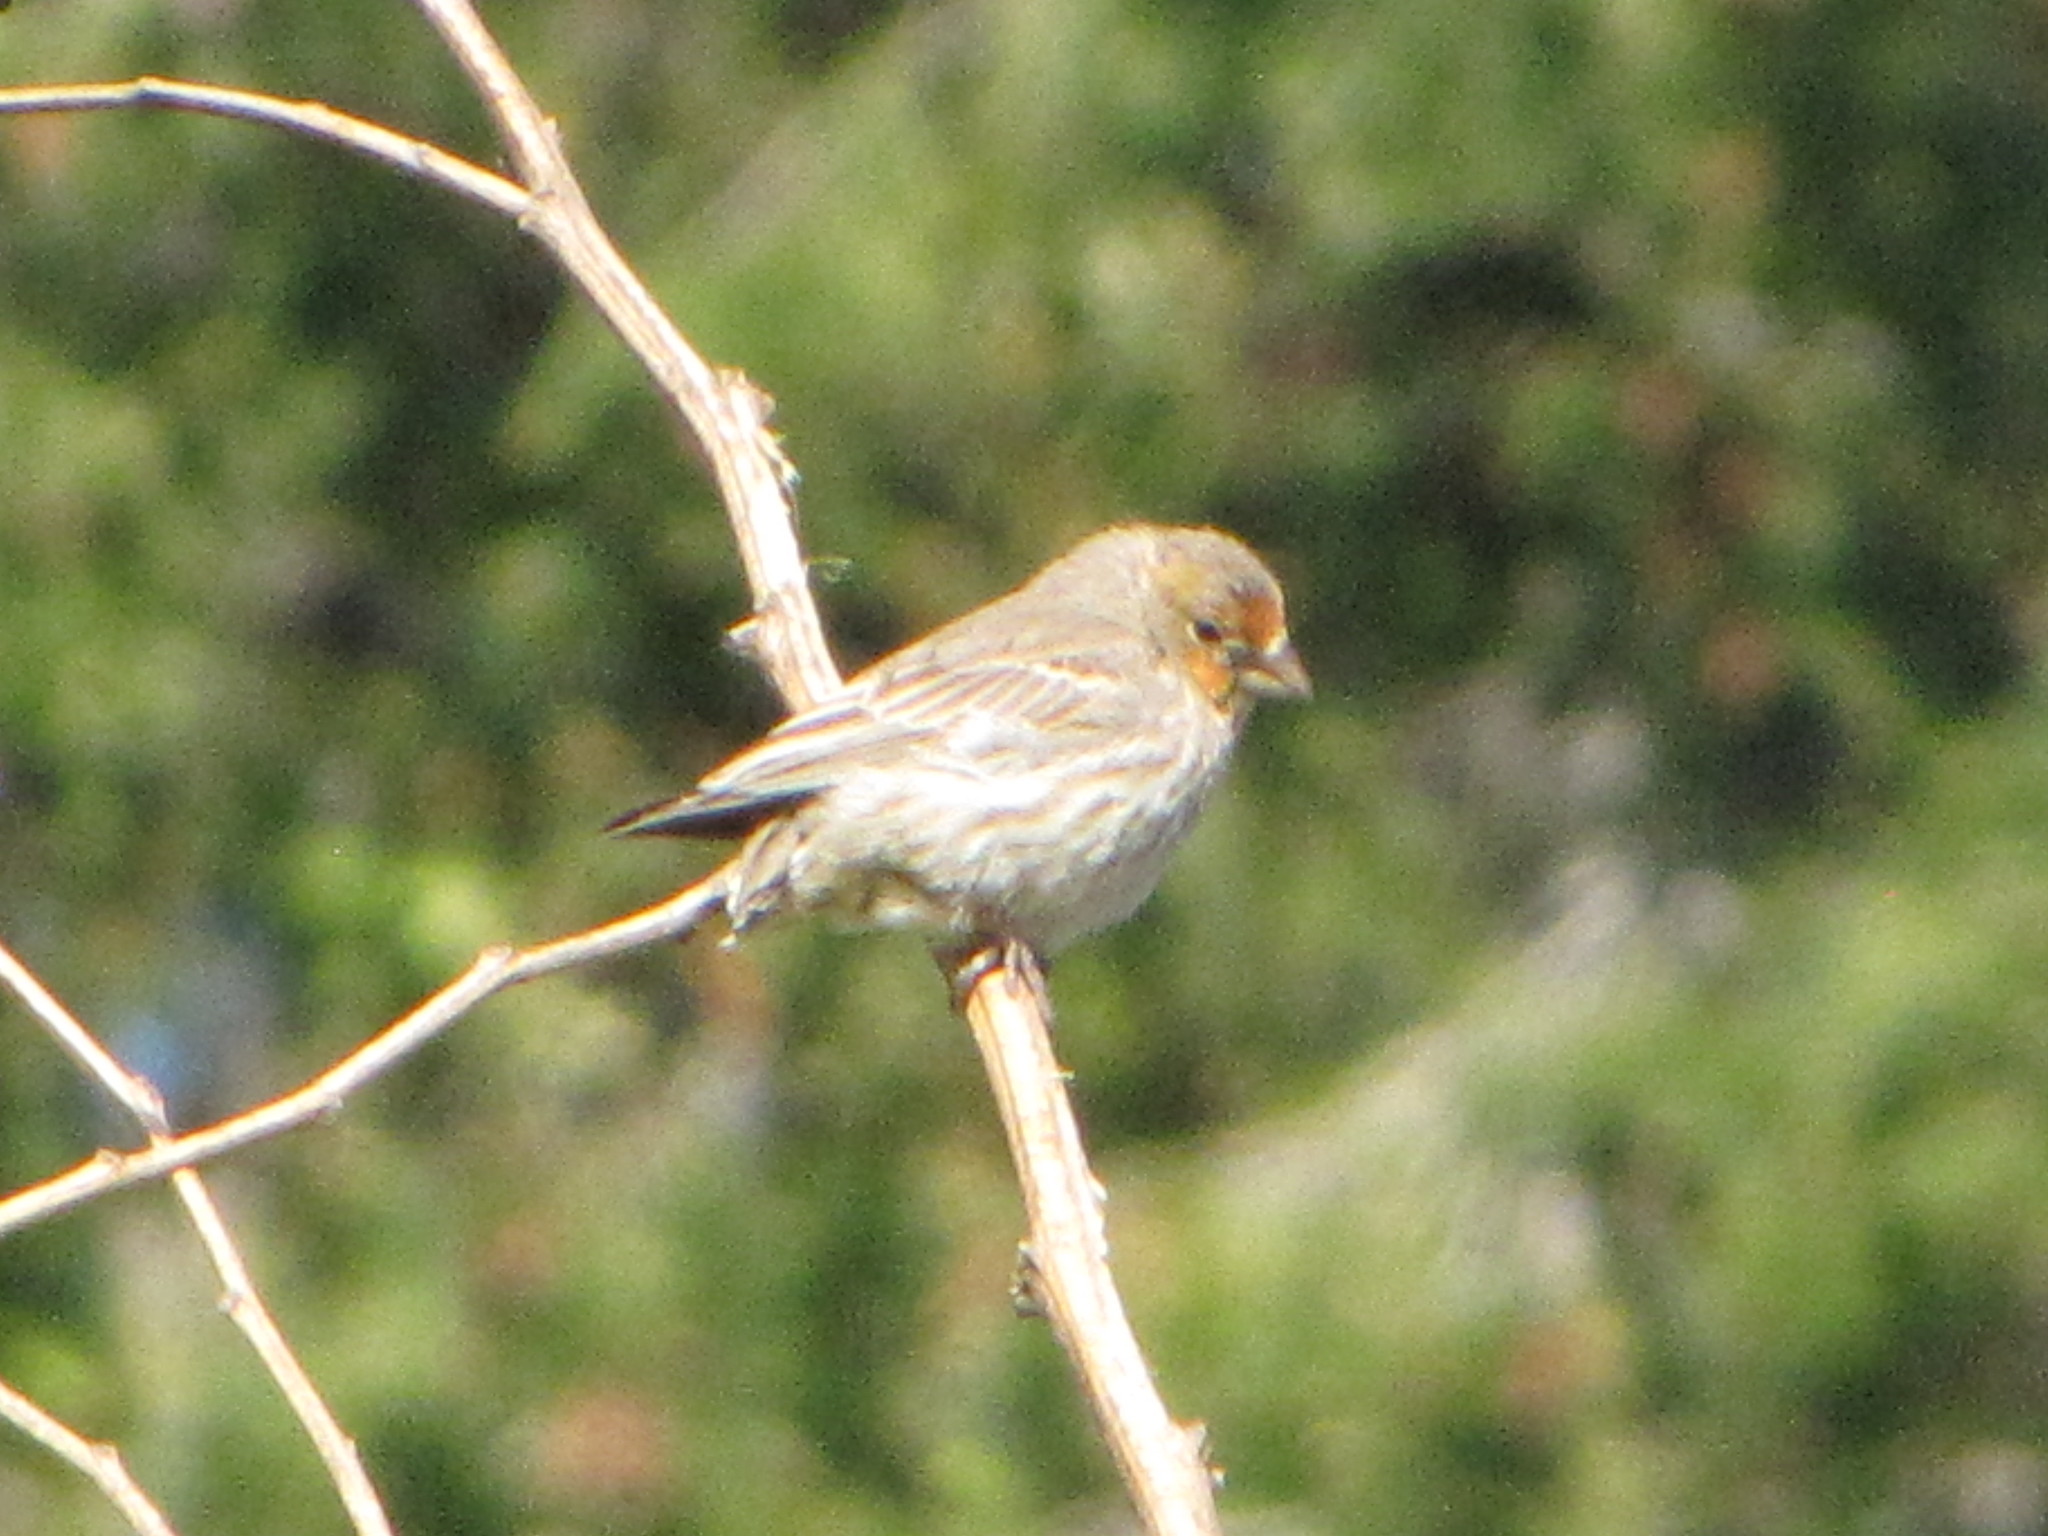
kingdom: Animalia
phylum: Chordata
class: Aves
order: Passeriformes
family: Fringillidae
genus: Haemorhous
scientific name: Haemorhous mexicanus
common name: House finch
